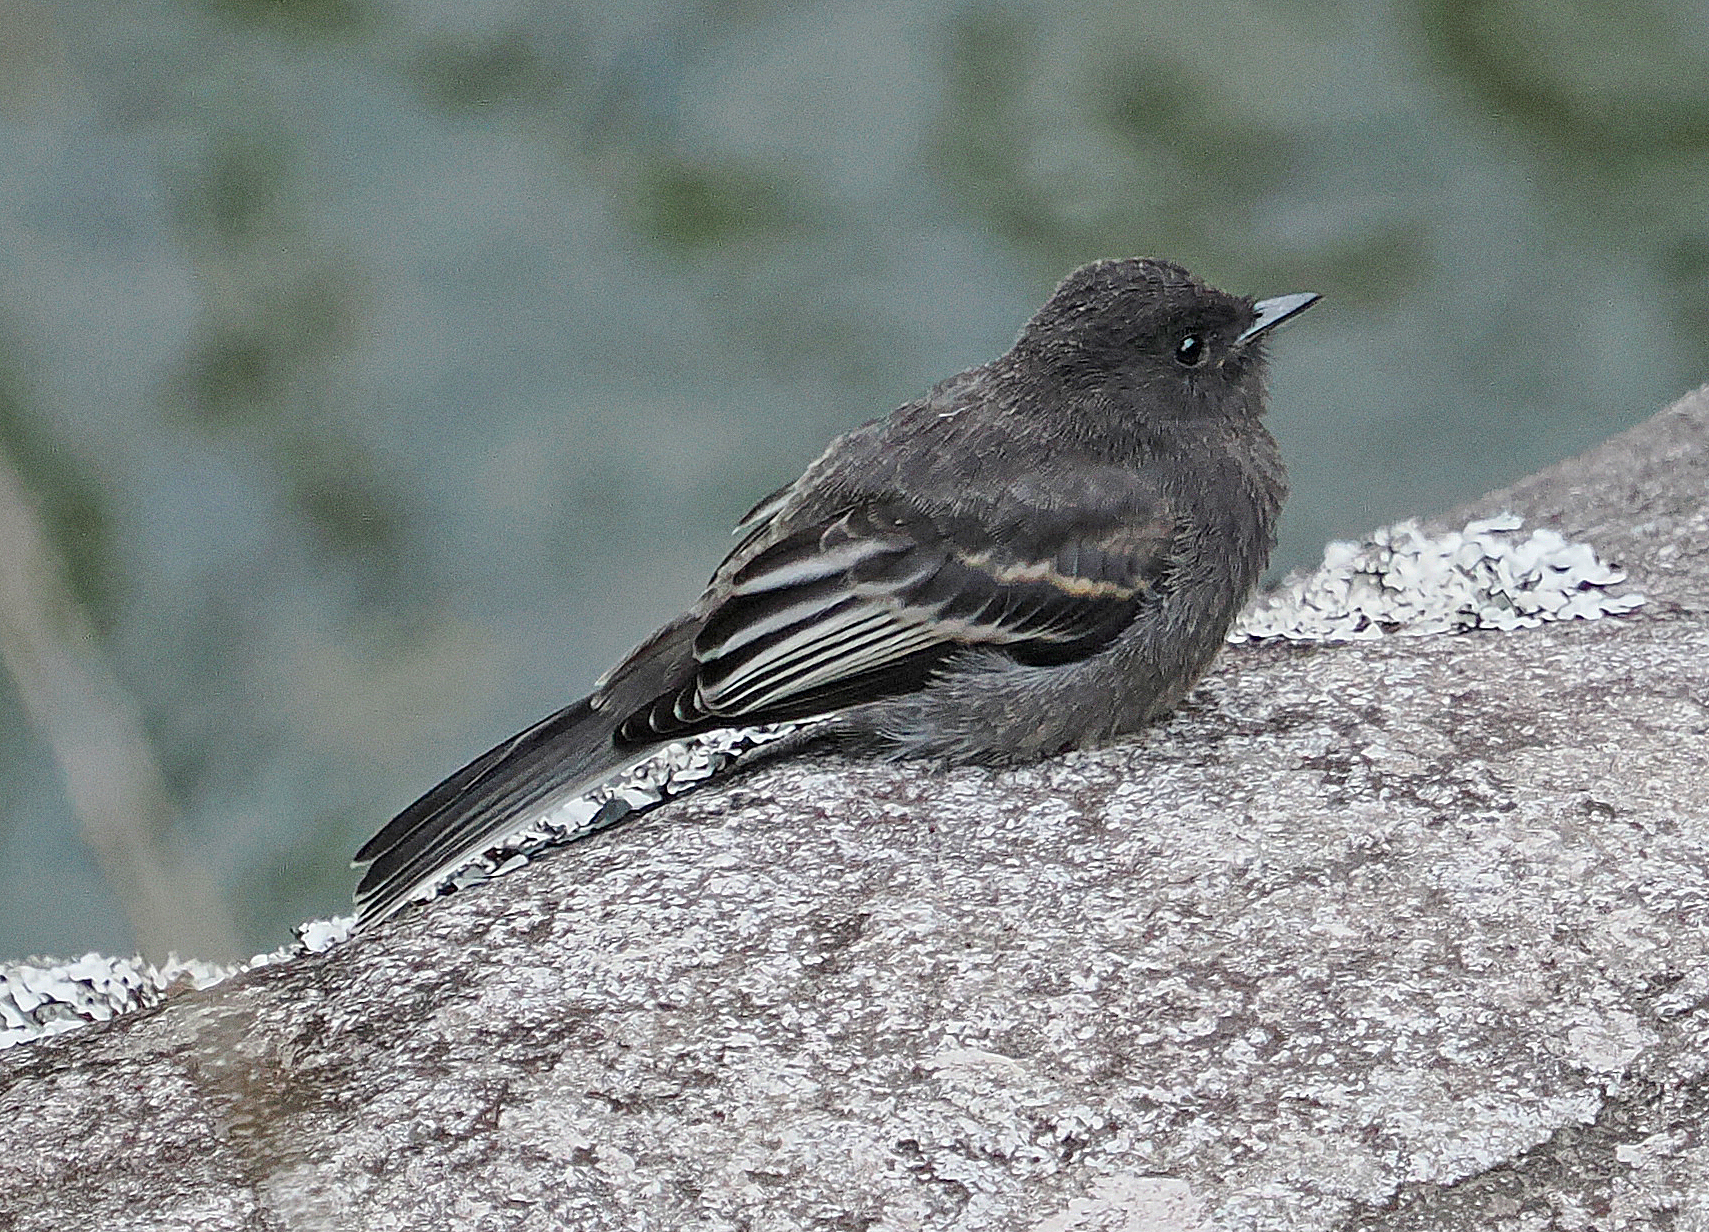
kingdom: Animalia
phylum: Chordata
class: Aves
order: Passeriformes
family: Tyrannidae
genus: Sayornis
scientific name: Sayornis nigricans
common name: Black phoebe
